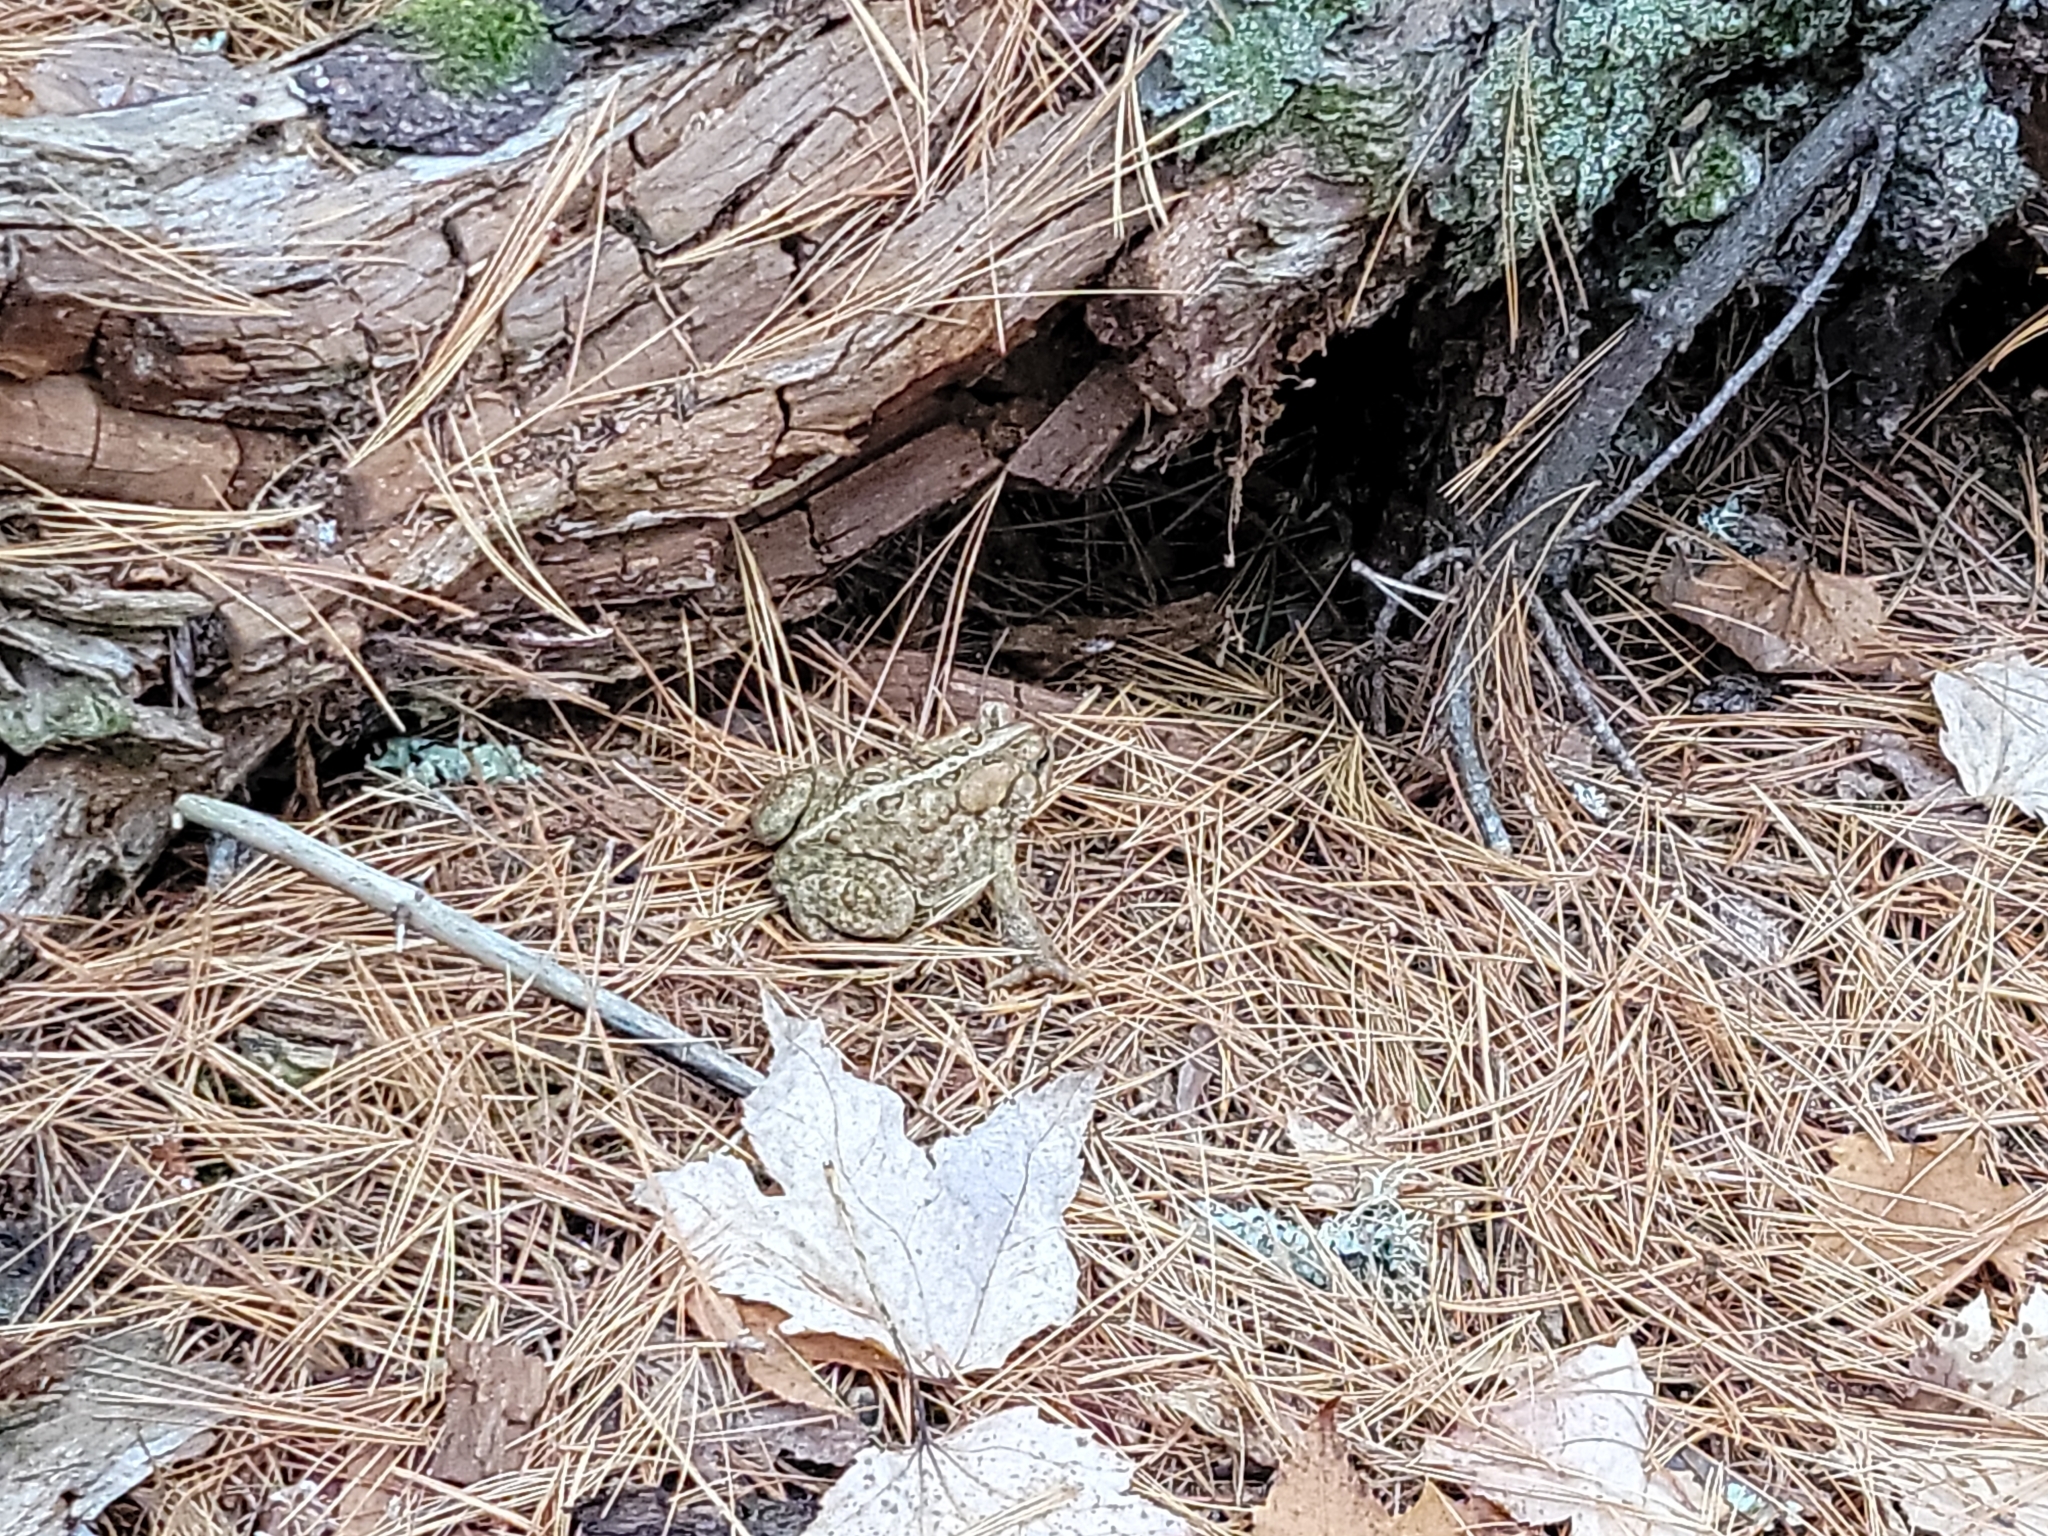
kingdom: Animalia
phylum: Chordata
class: Amphibia
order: Anura
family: Bufonidae
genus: Anaxyrus
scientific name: Anaxyrus americanus
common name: American toad
